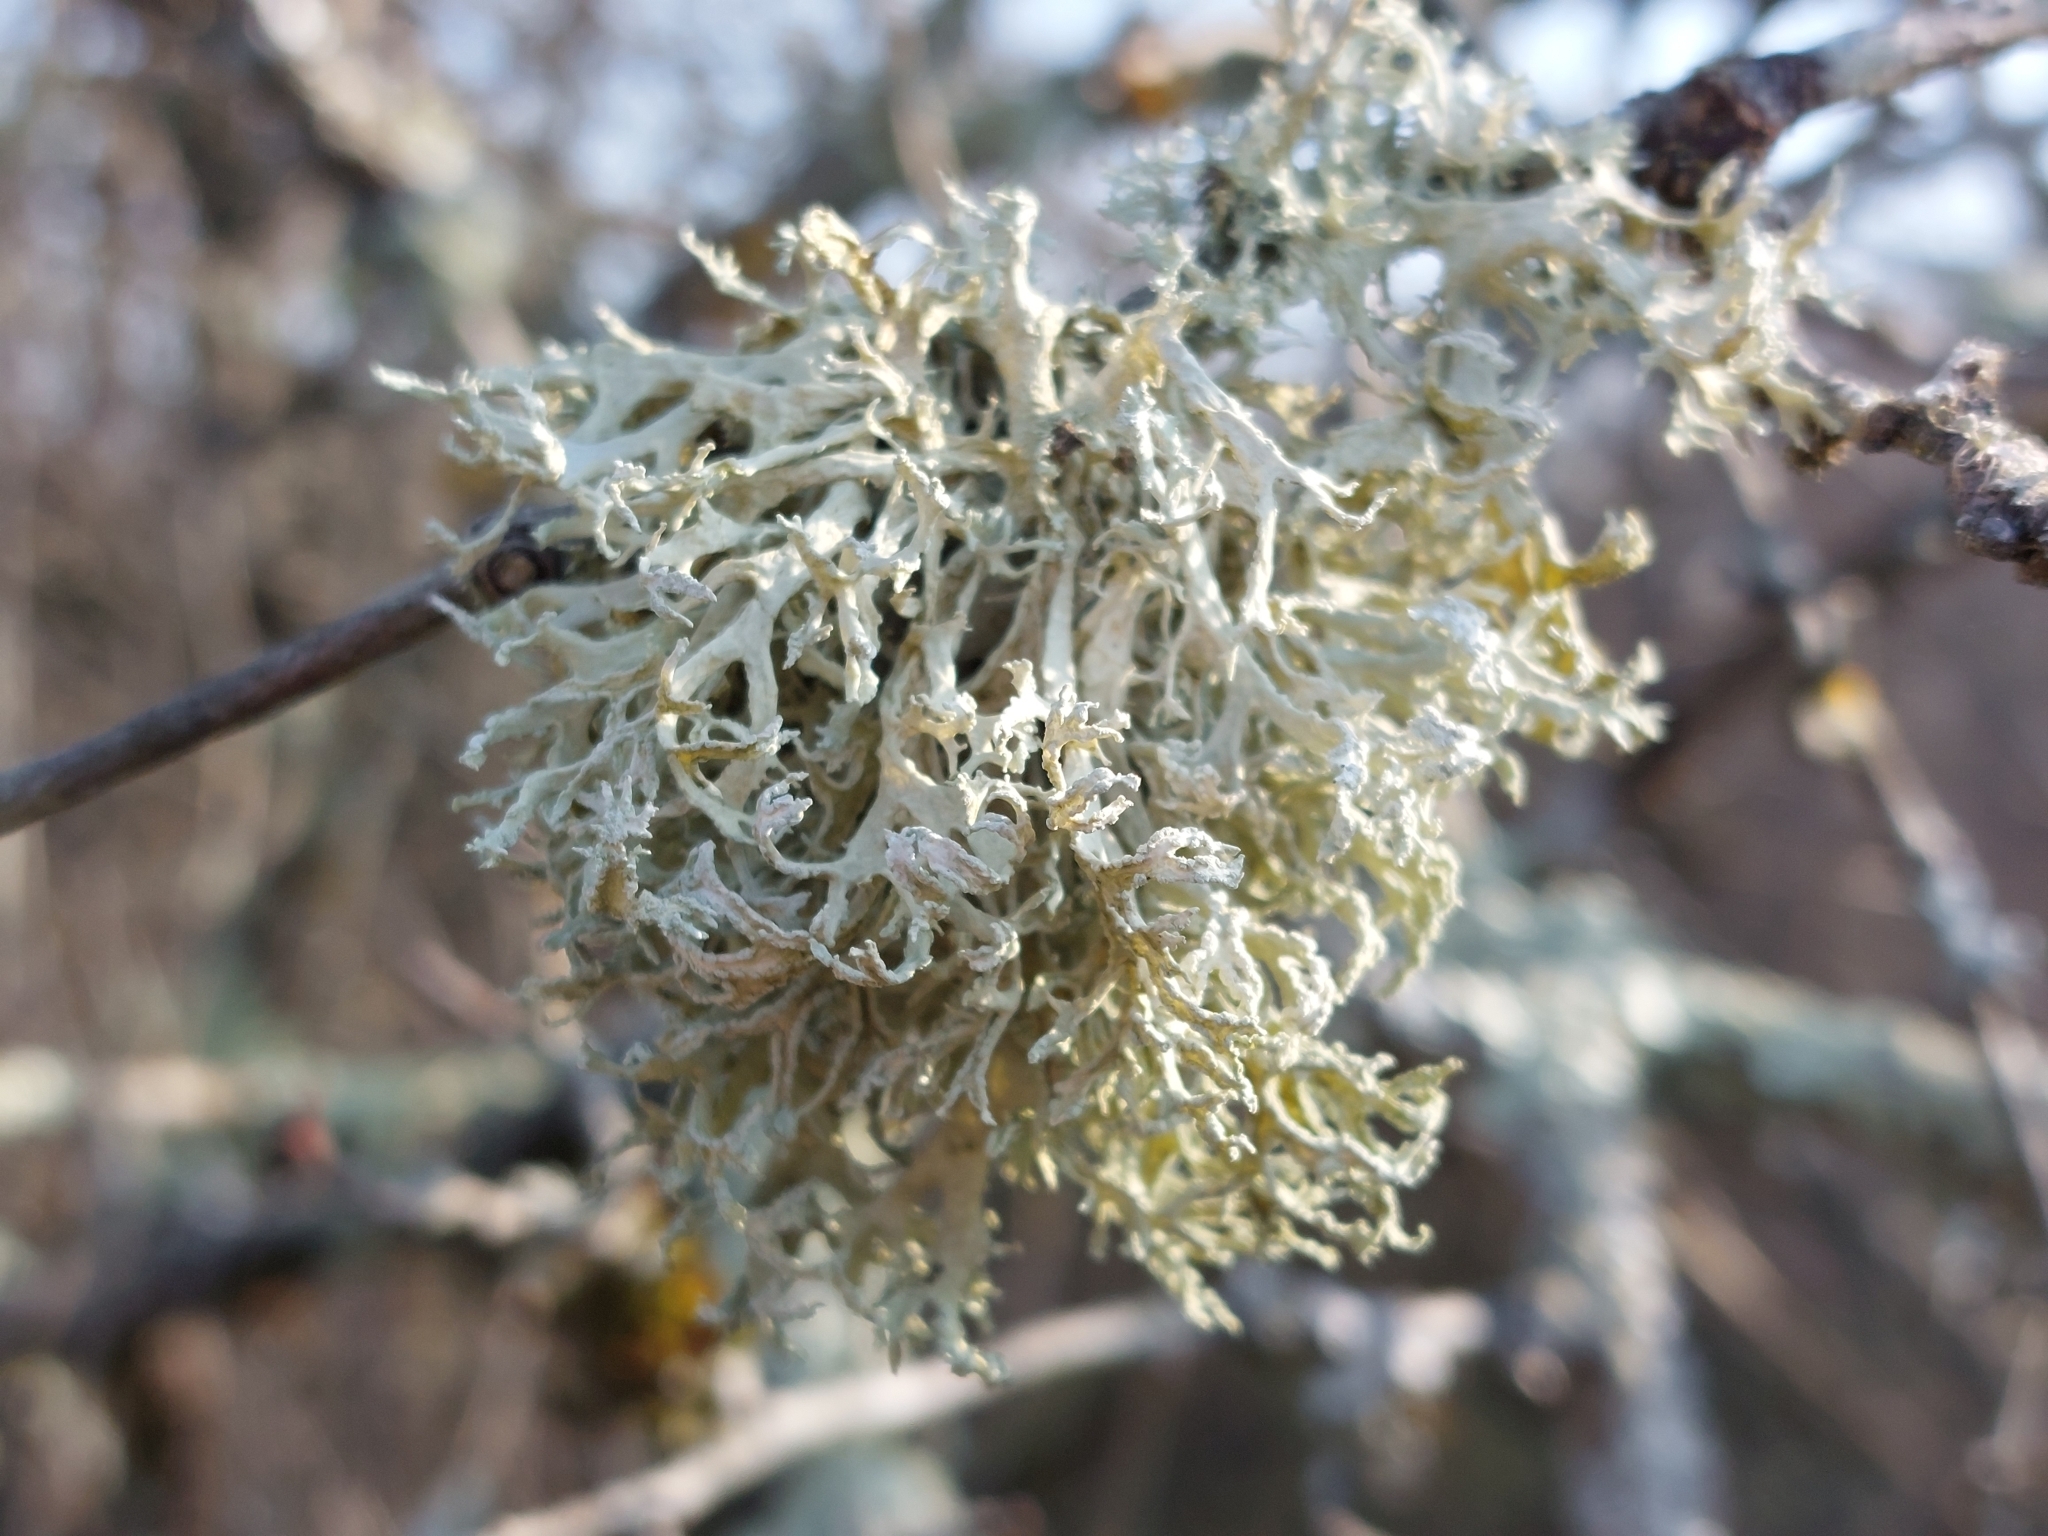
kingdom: Fungi
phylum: Ascomycota
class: Lecanoromycetes
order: Lecanorales
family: Parmeliaceae
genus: Evernia
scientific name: Evernia prunastri
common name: Oak moss
